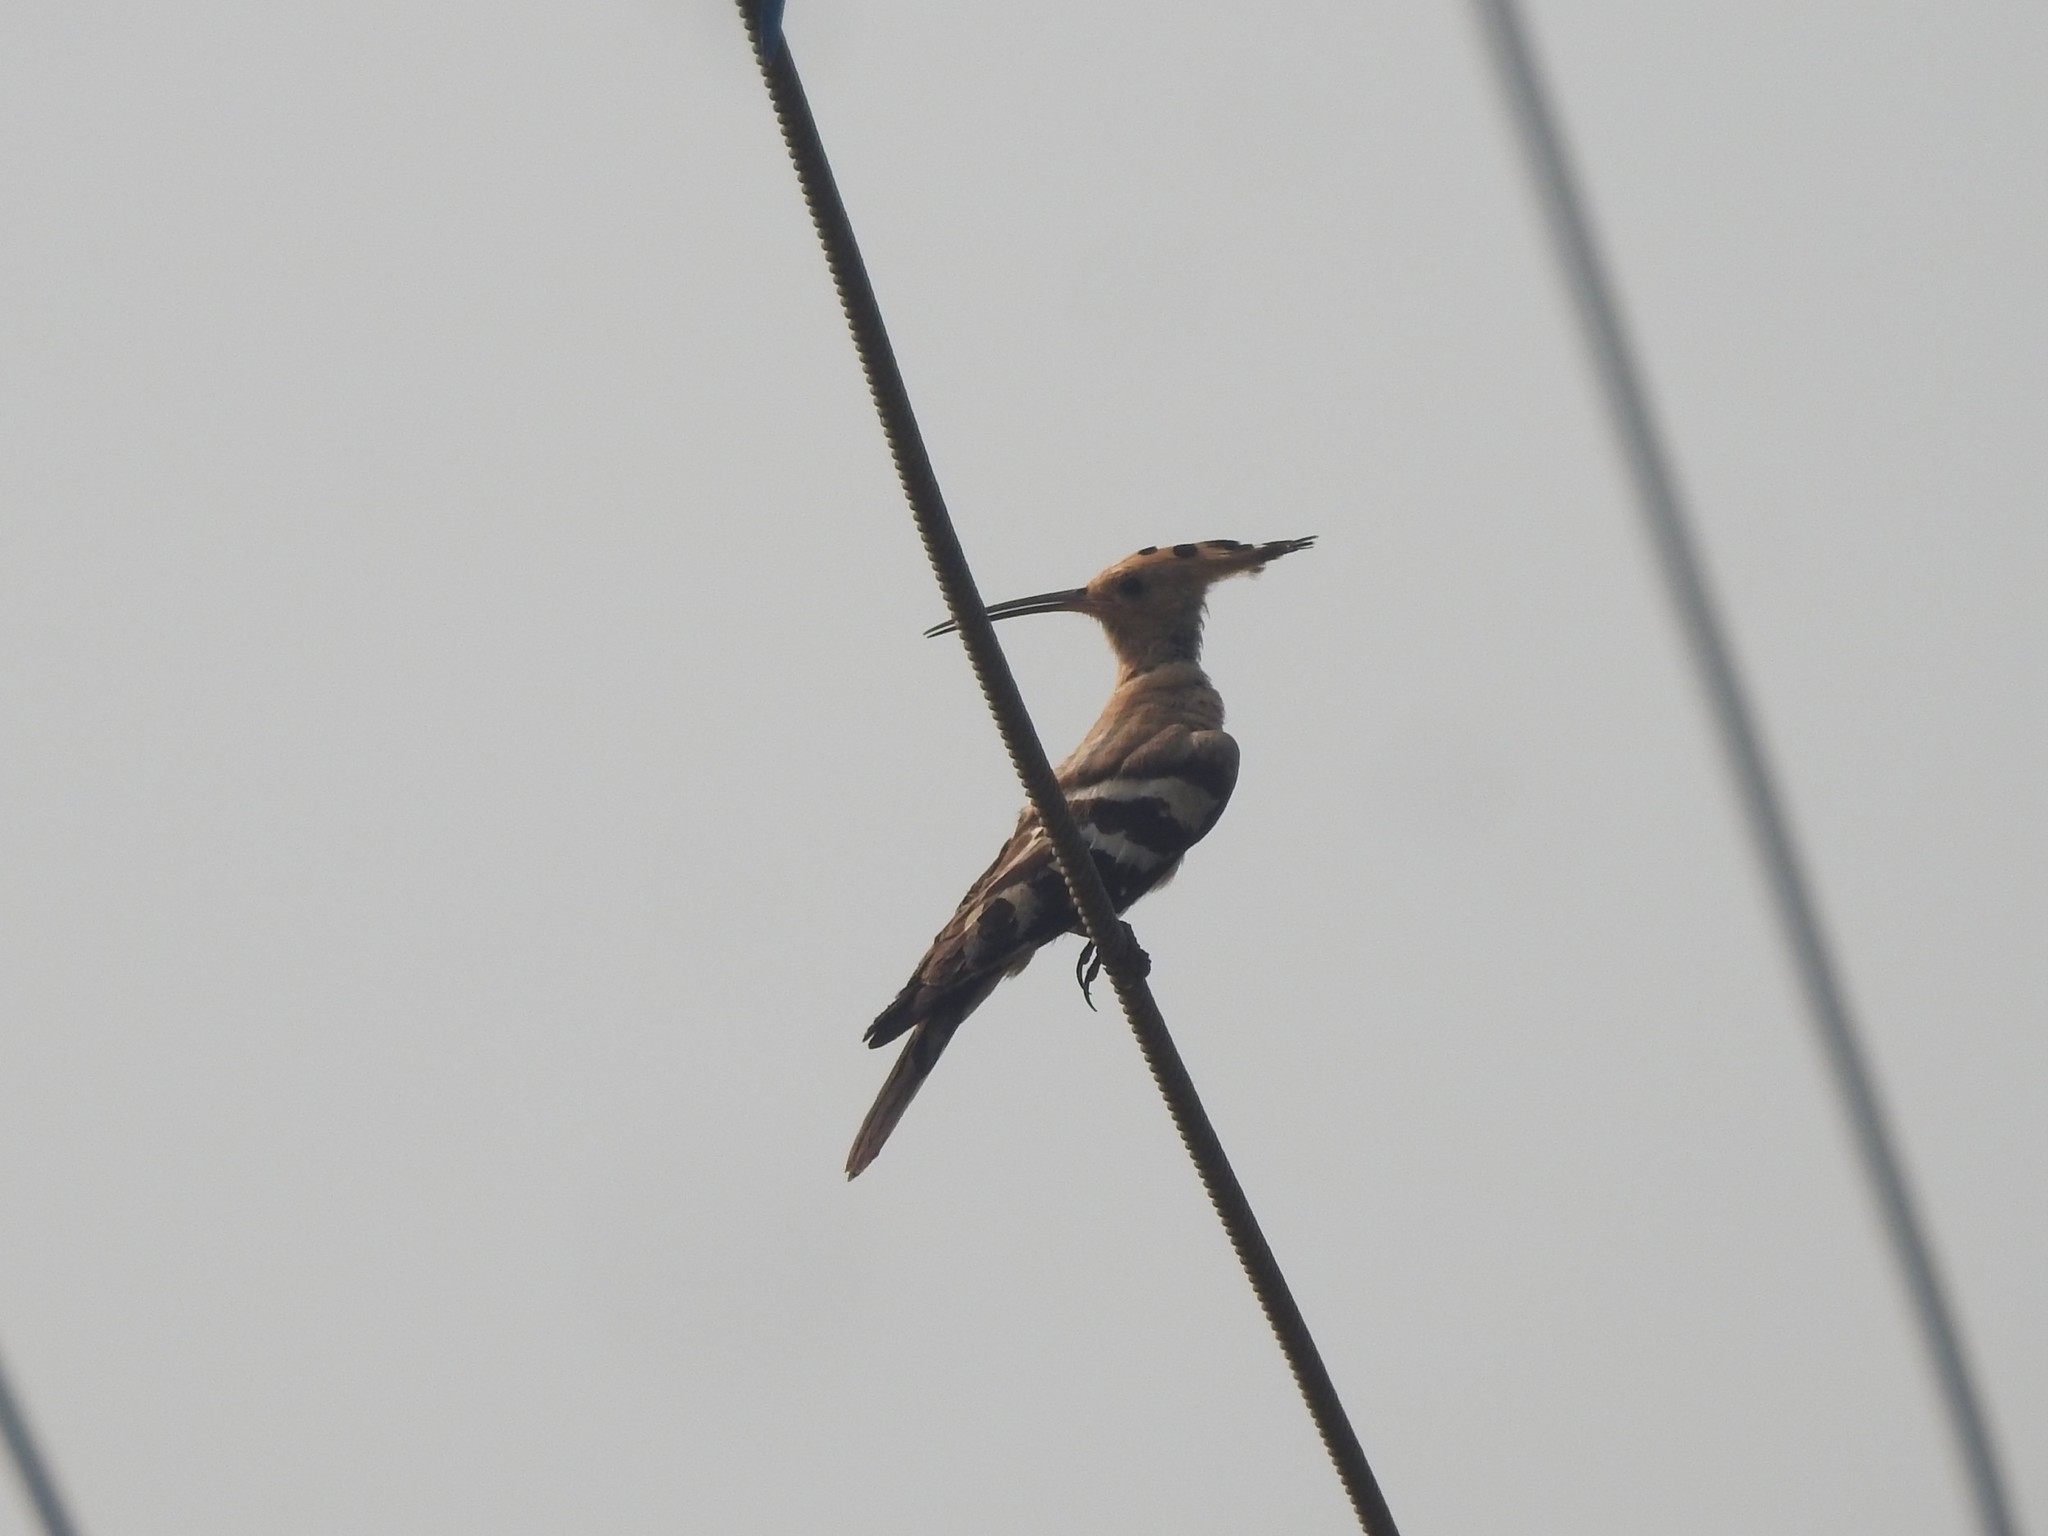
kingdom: Animalia
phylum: Chordata
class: Aves
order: Bucerotiformes
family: Upupidae
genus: Upupa
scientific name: Upupa epops
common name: Eurasian hoopoe
